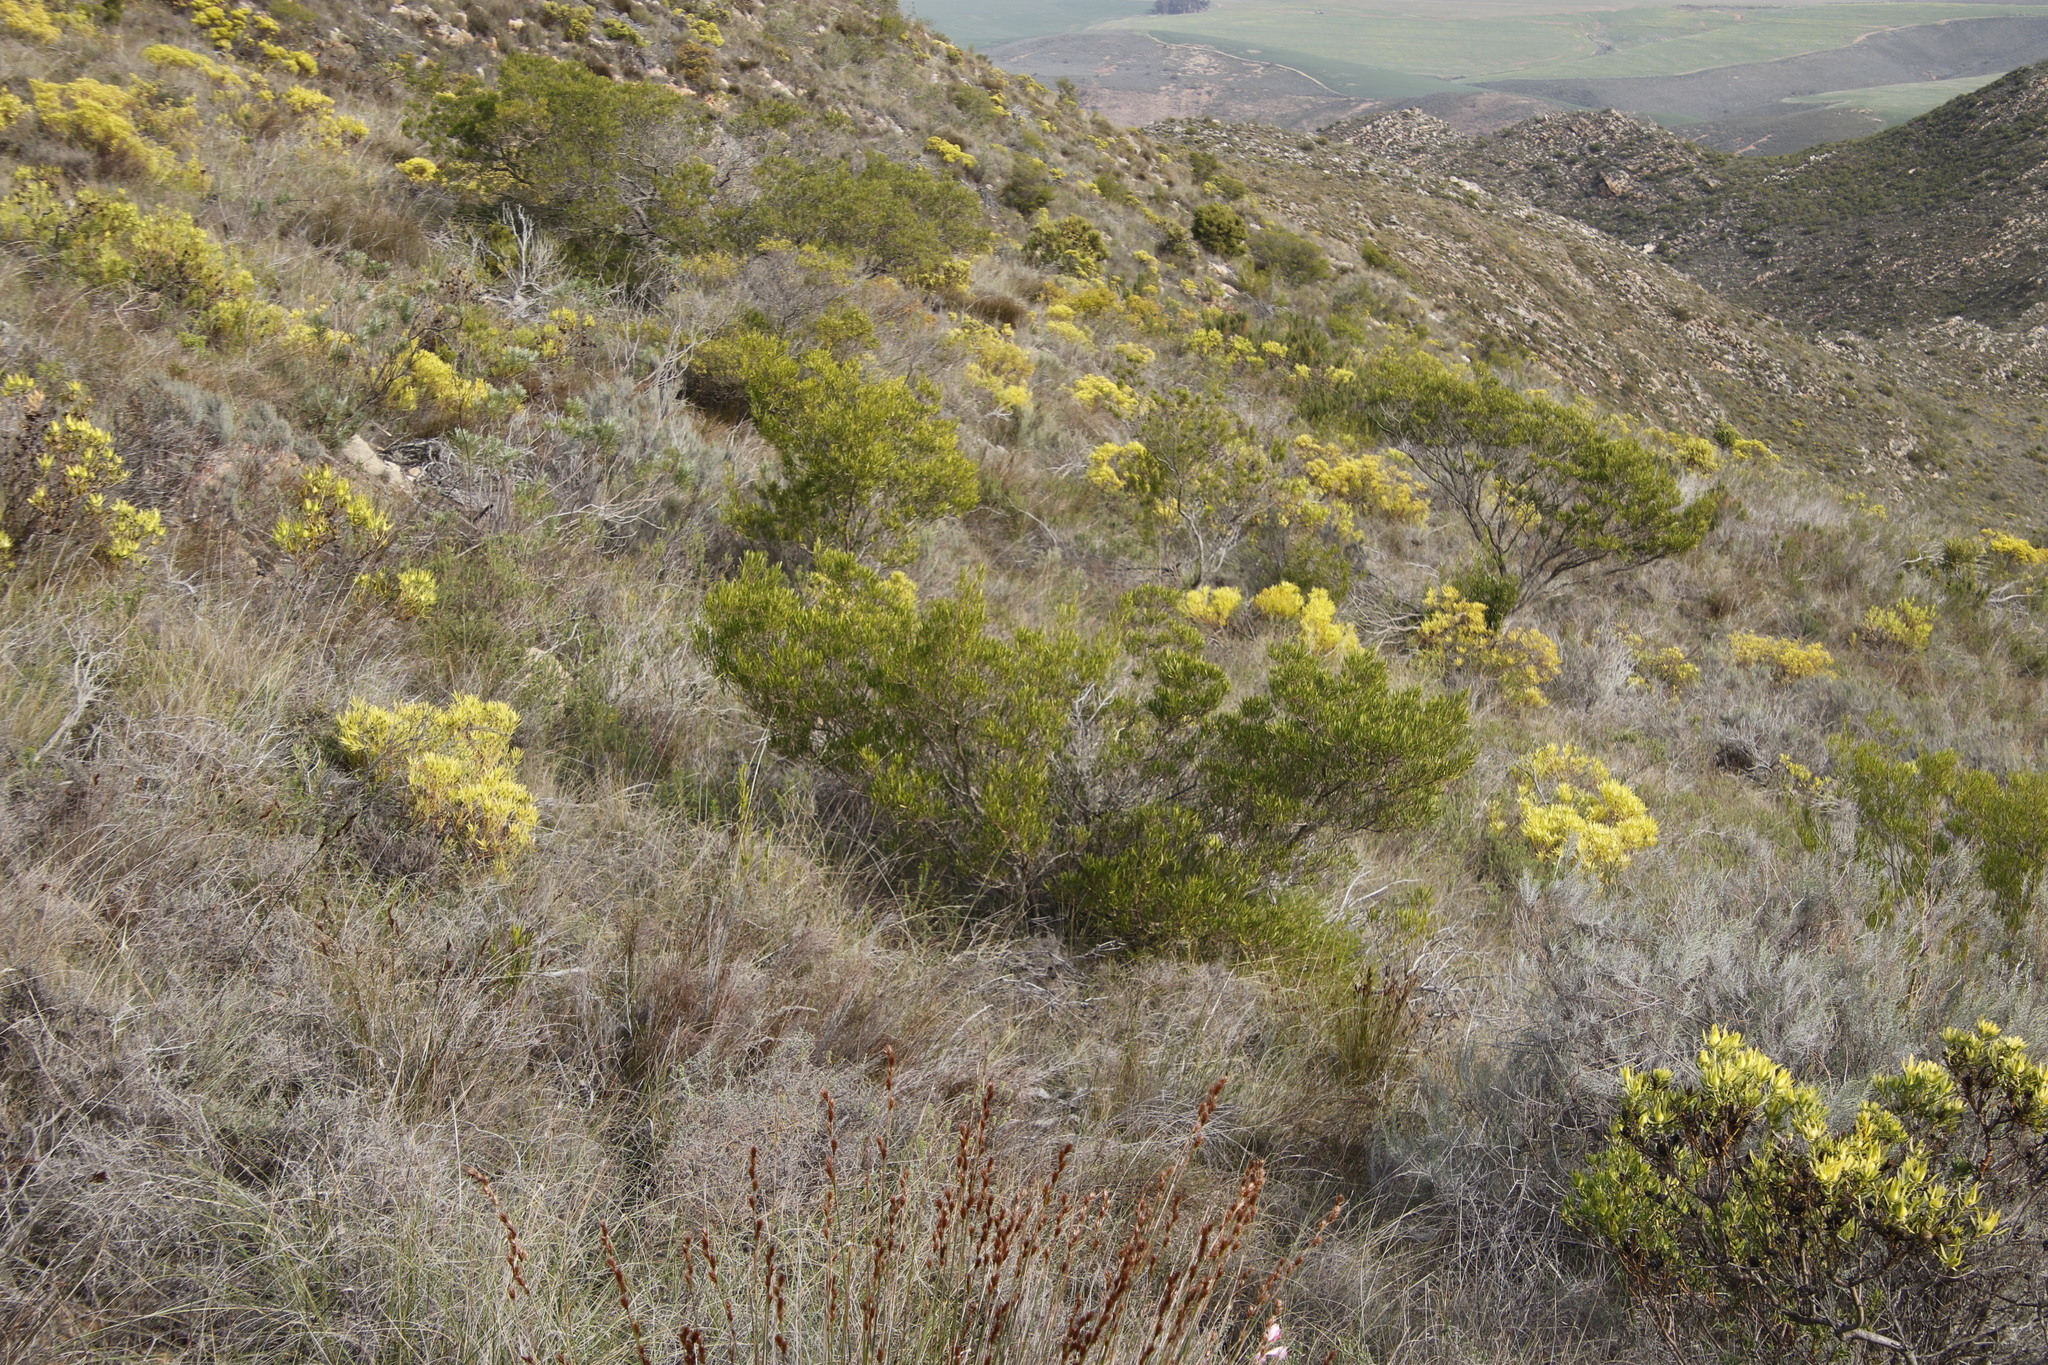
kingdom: Plantae
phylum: Tracheophyta
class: Magnoliopsida
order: Sapindales
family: Sapindaceae
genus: Dodonaea
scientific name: Dodonaea viscosa
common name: Hopbush
